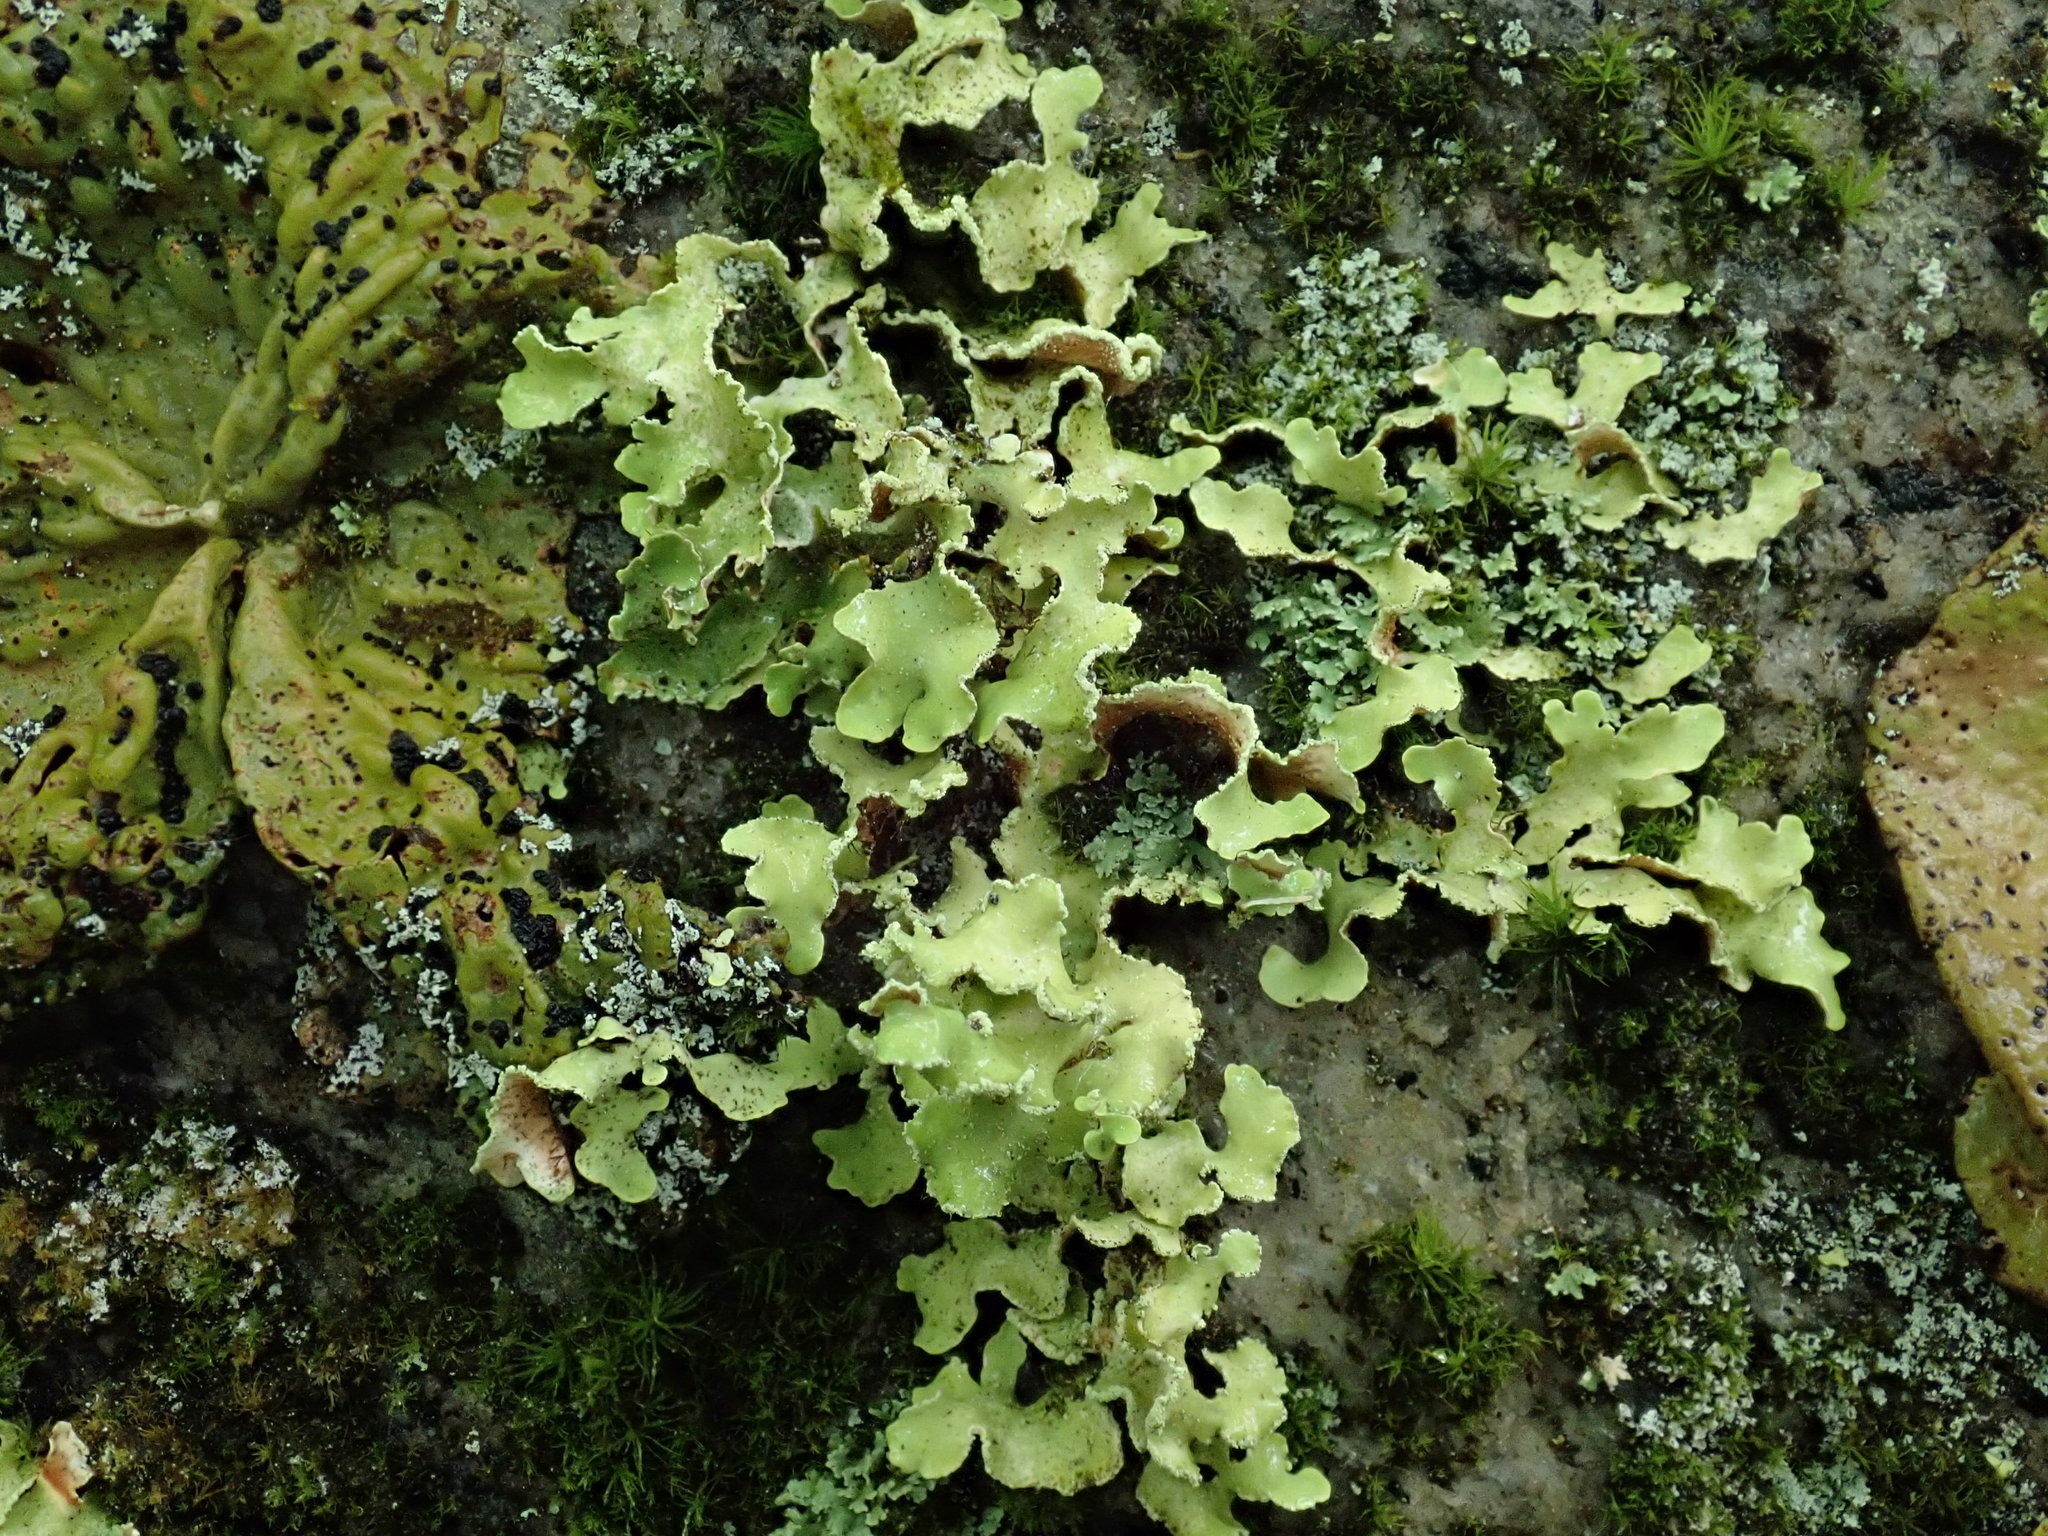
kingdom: Fungi
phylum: Ascomycota
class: Lecanoromycetes
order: Lecanorales
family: Parmeliaceae
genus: Usnocetraria
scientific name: Usnocetraria oakesiana
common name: Yellow ribbon lichen
